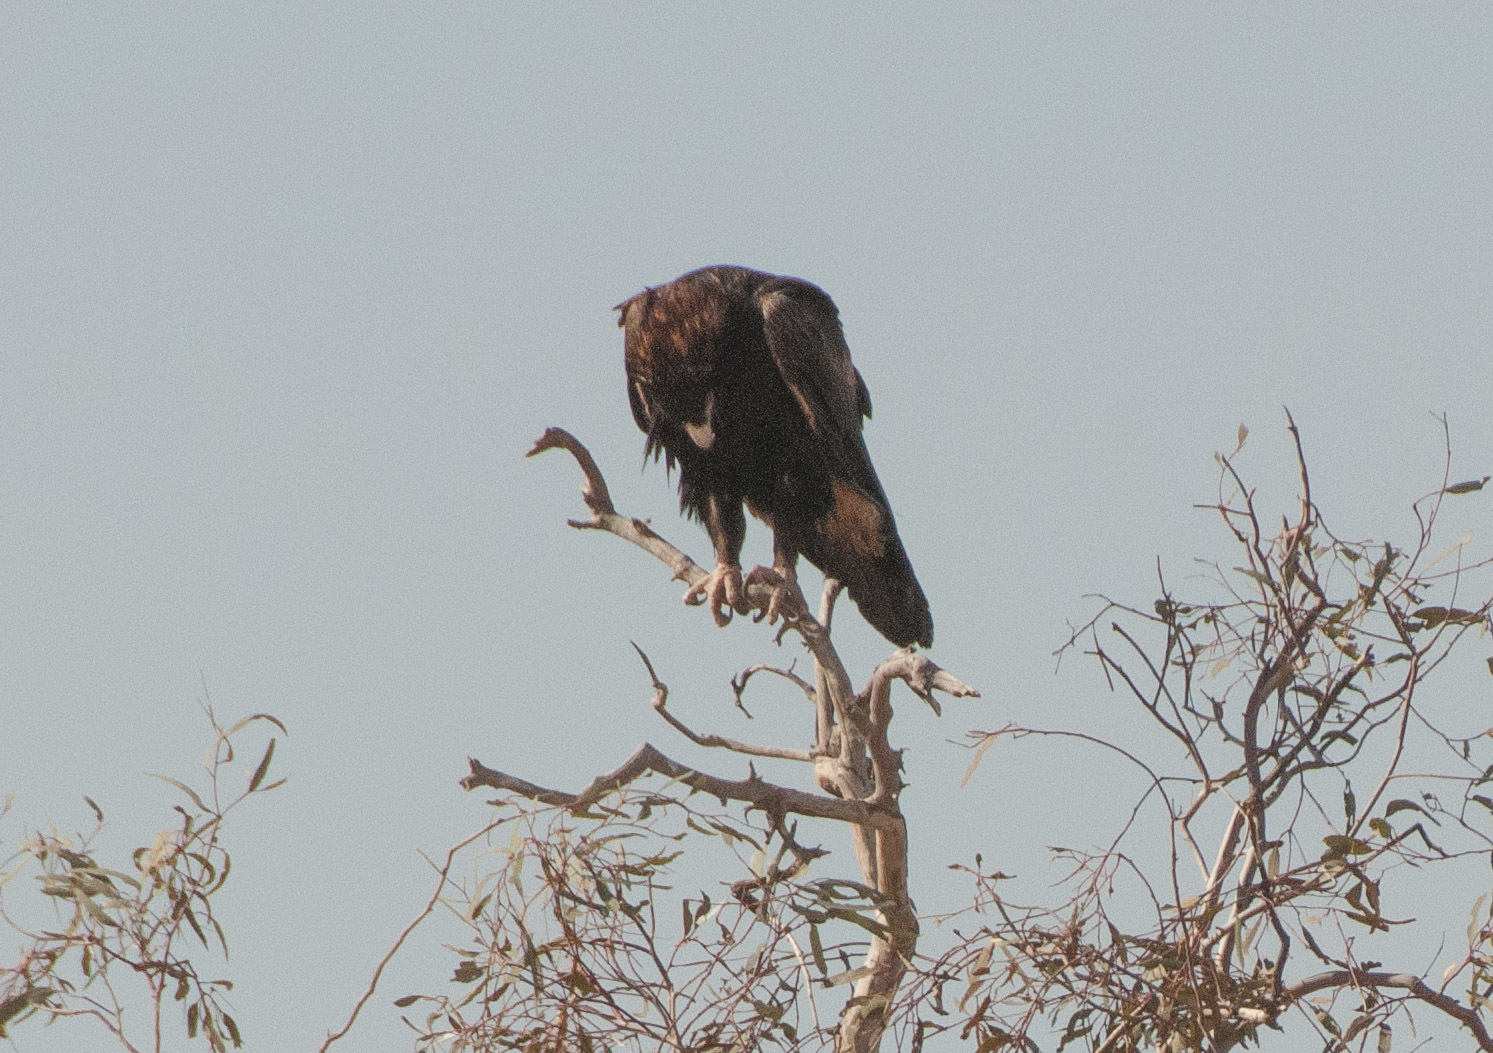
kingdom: Animalia
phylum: Chordata
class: Aves
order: Accipitriformes
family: Accipitridae
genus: Aquila
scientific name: Aquila audax
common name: Wedge-tailed eagle
